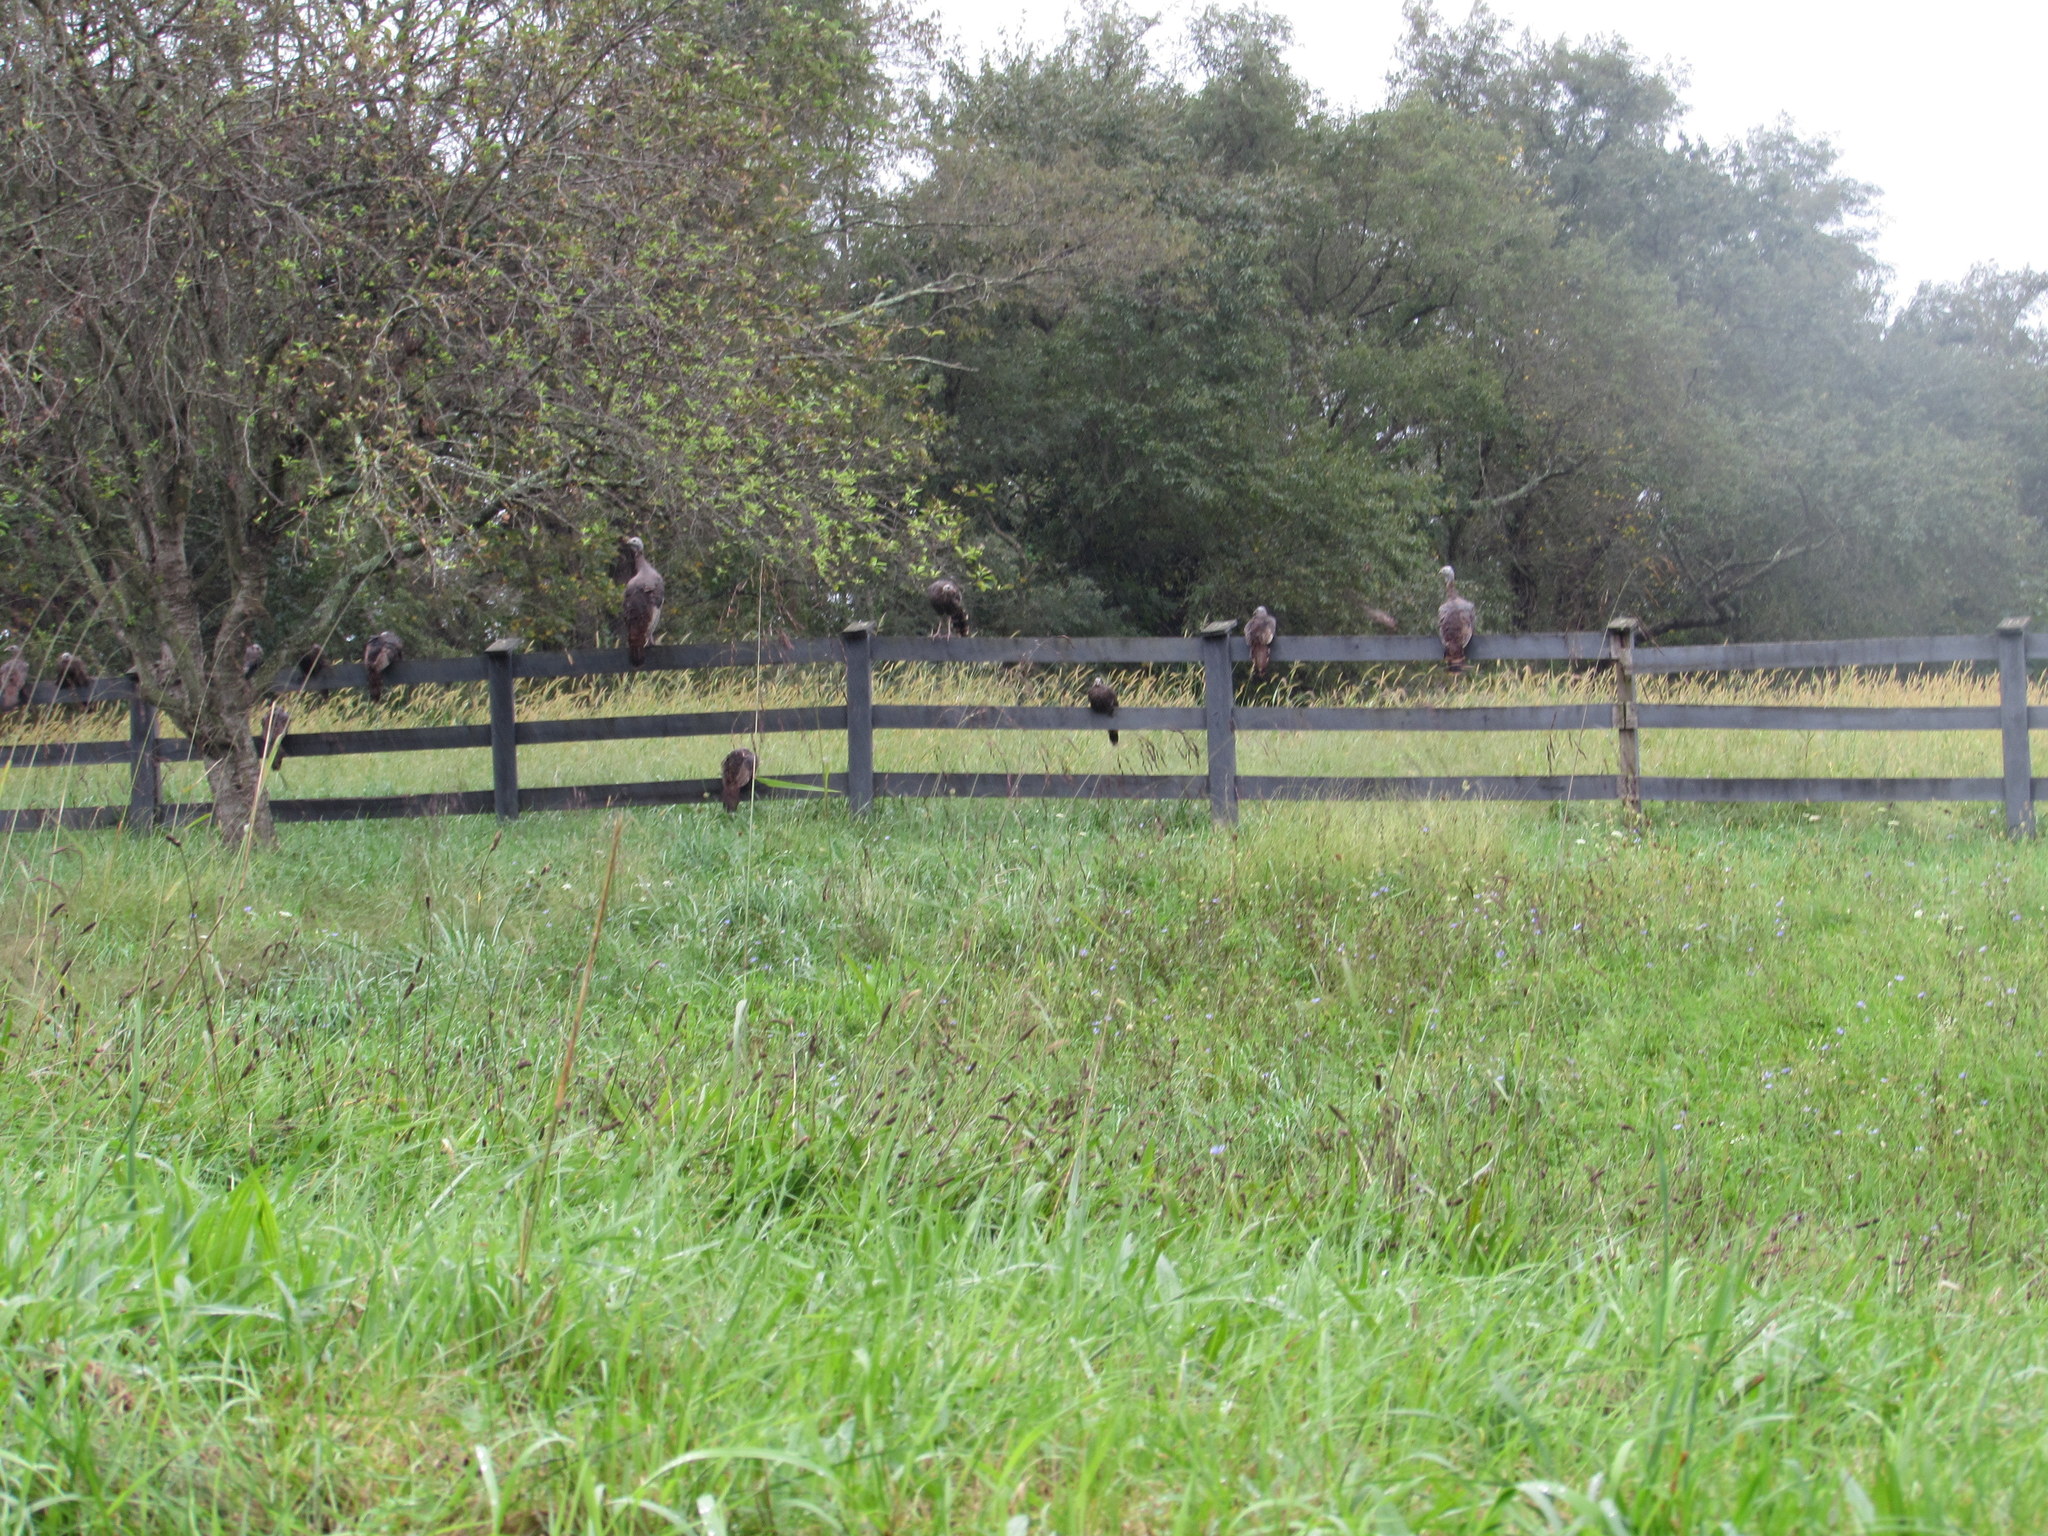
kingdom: Animalia
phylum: Chordata
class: Aves
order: Galliformes
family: Phasianidae
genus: Meleagris
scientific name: Meleagris gallopavo
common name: Wild turkey
